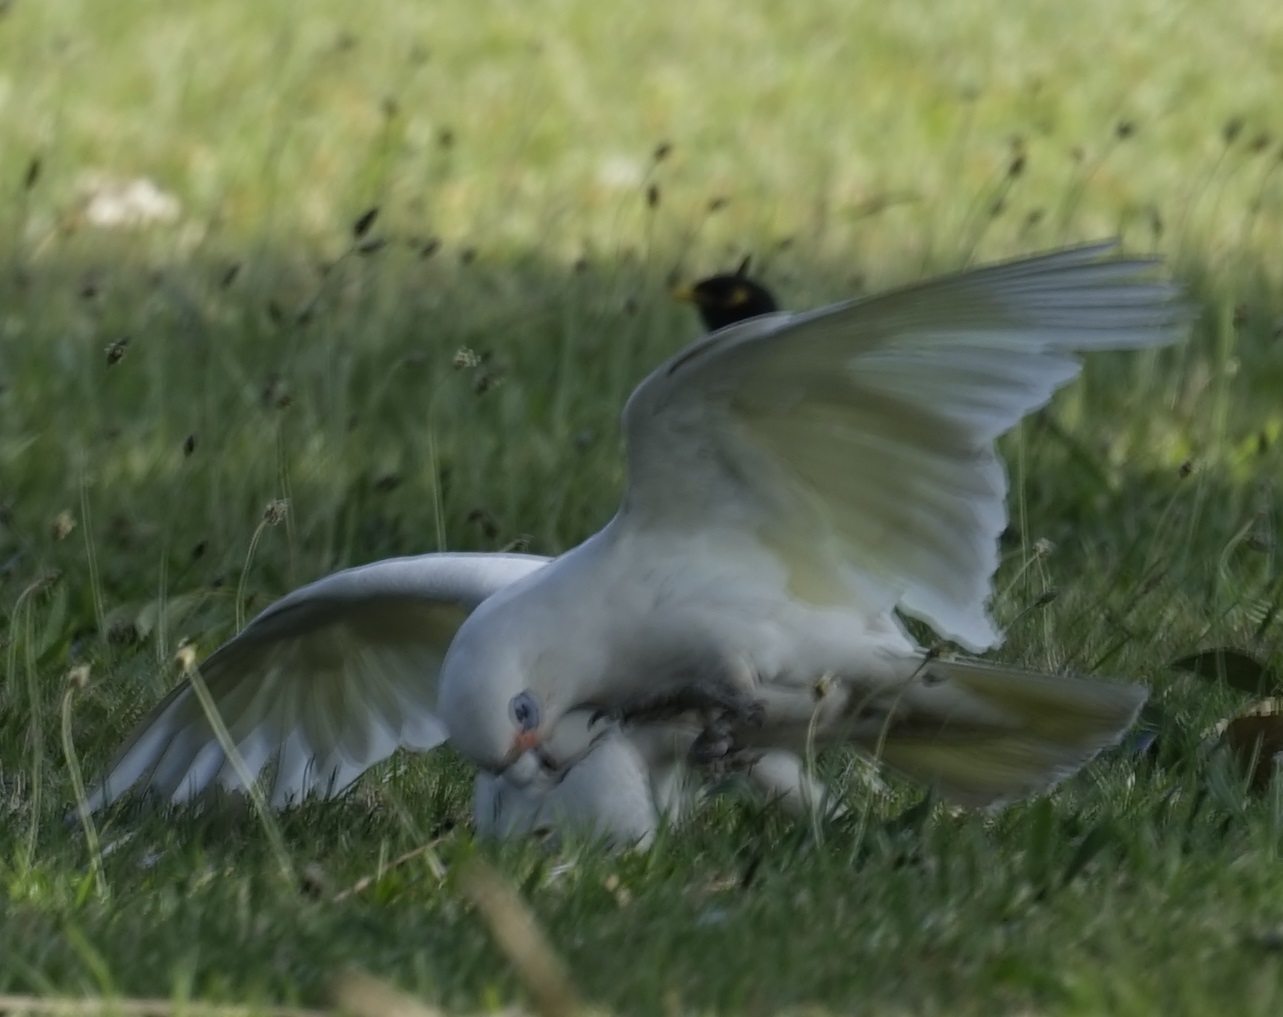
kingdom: Animalia
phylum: Chordata
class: Aves
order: Psittaciformes
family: Psittacidae
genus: Cacatua
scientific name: Cacatua sanguinea
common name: Little corella
